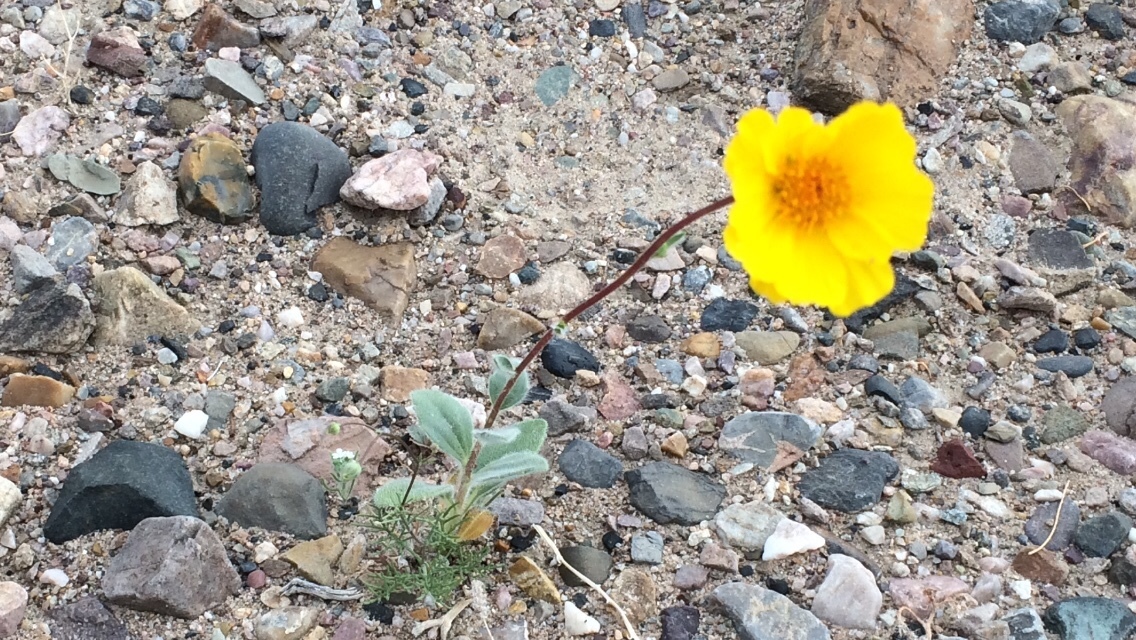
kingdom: Plantae
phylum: Tracheophyta
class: Magnoliopsida
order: Asterales
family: Asteraceae
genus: Geraea
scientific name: Geraea canescens
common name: Desert-gold
